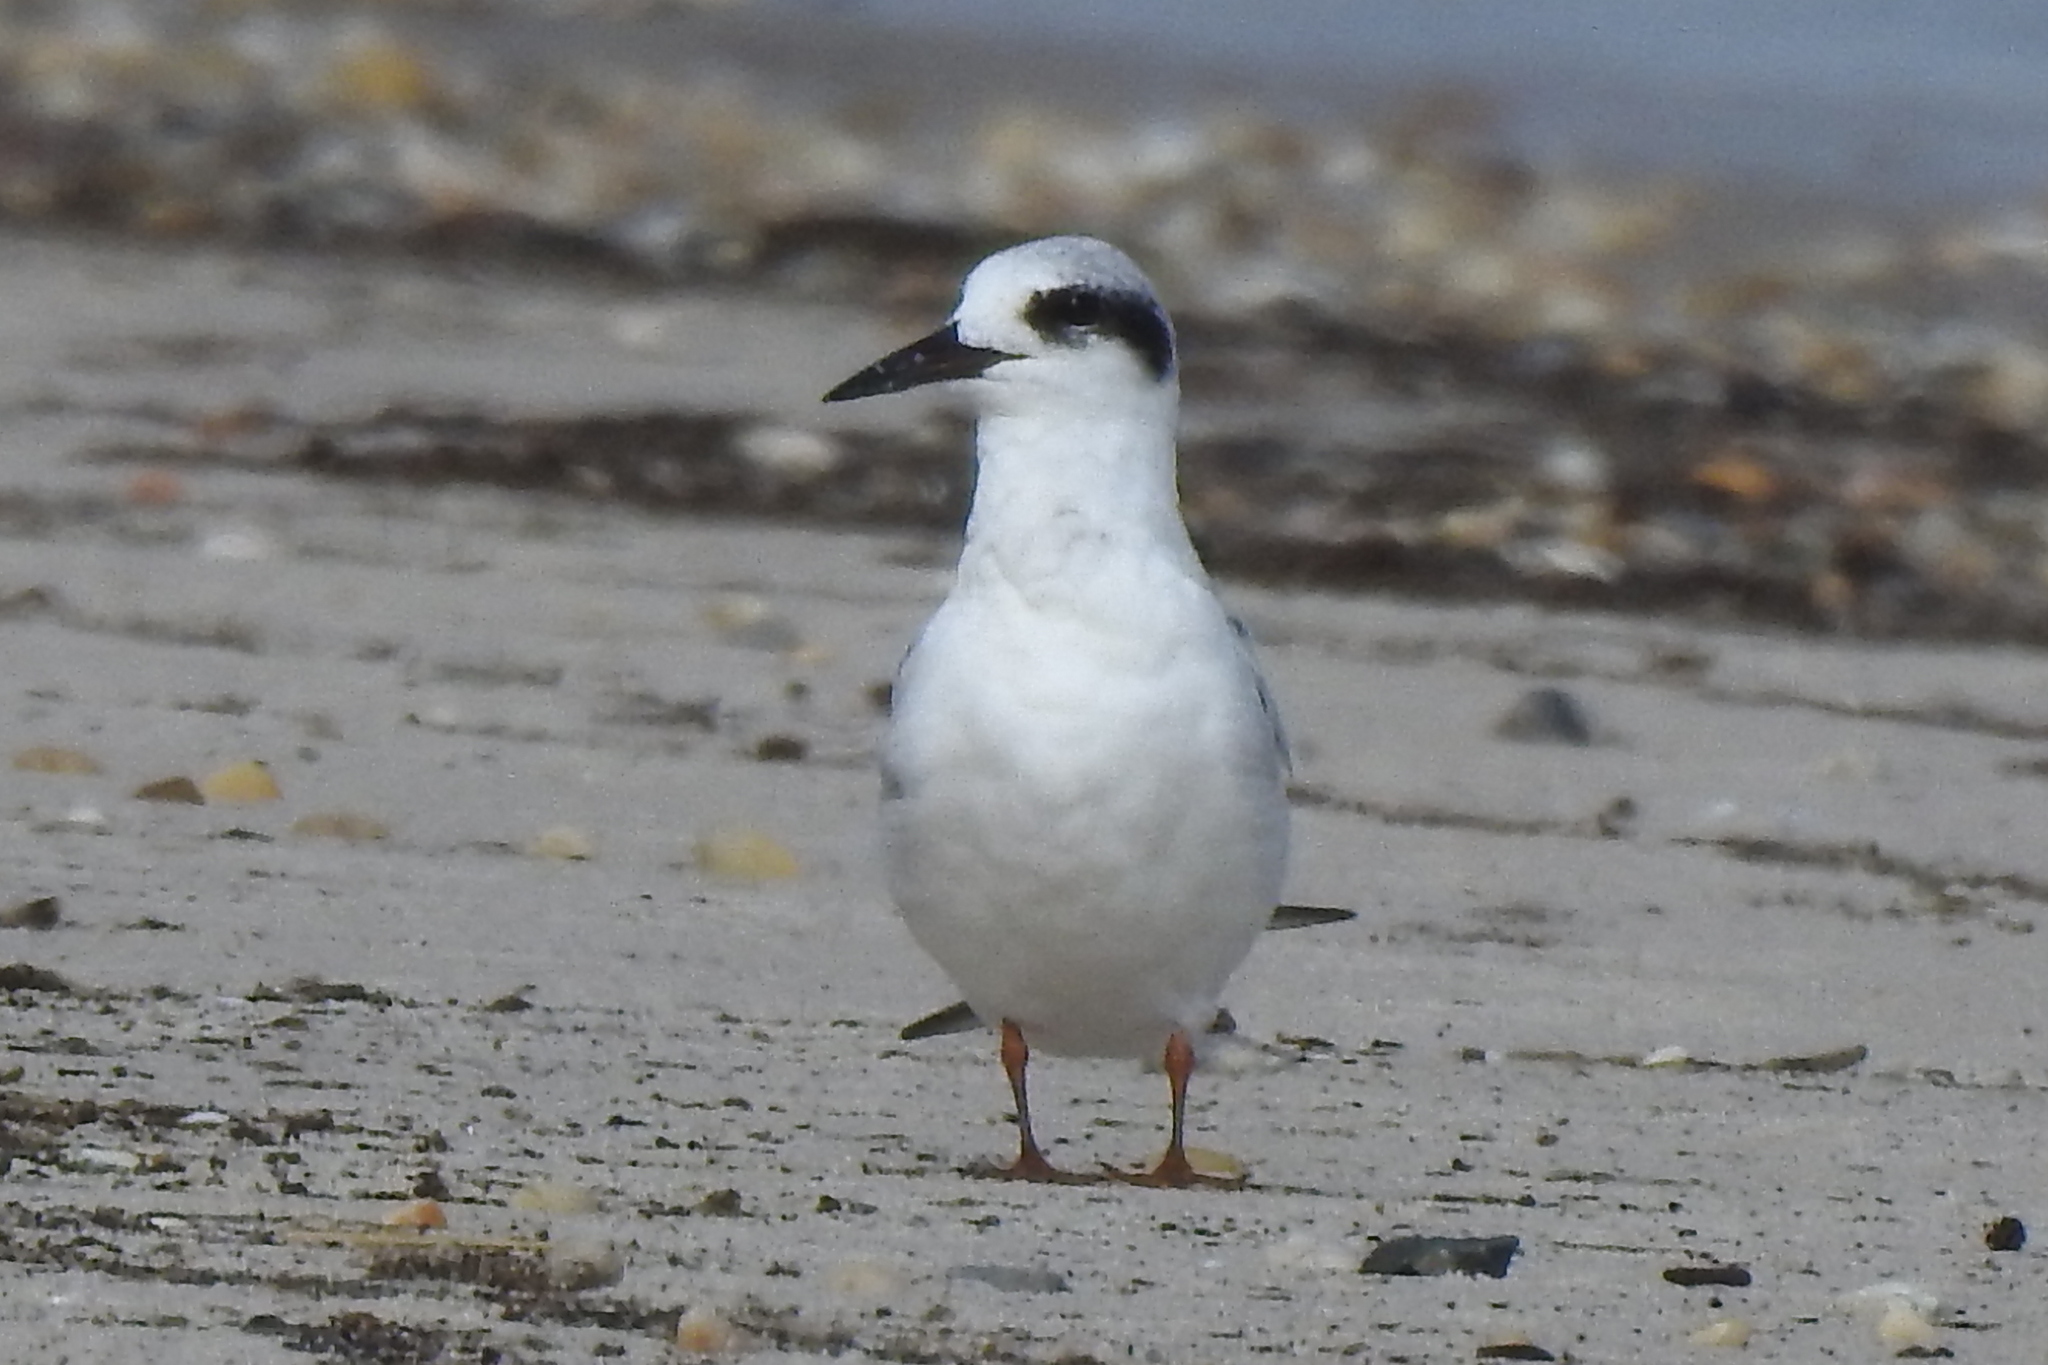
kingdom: Animalia
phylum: Chordata
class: Aves
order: Charadriiformes
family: Laridae
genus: Sterna
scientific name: Sterna forsteri
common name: Forster's tern
